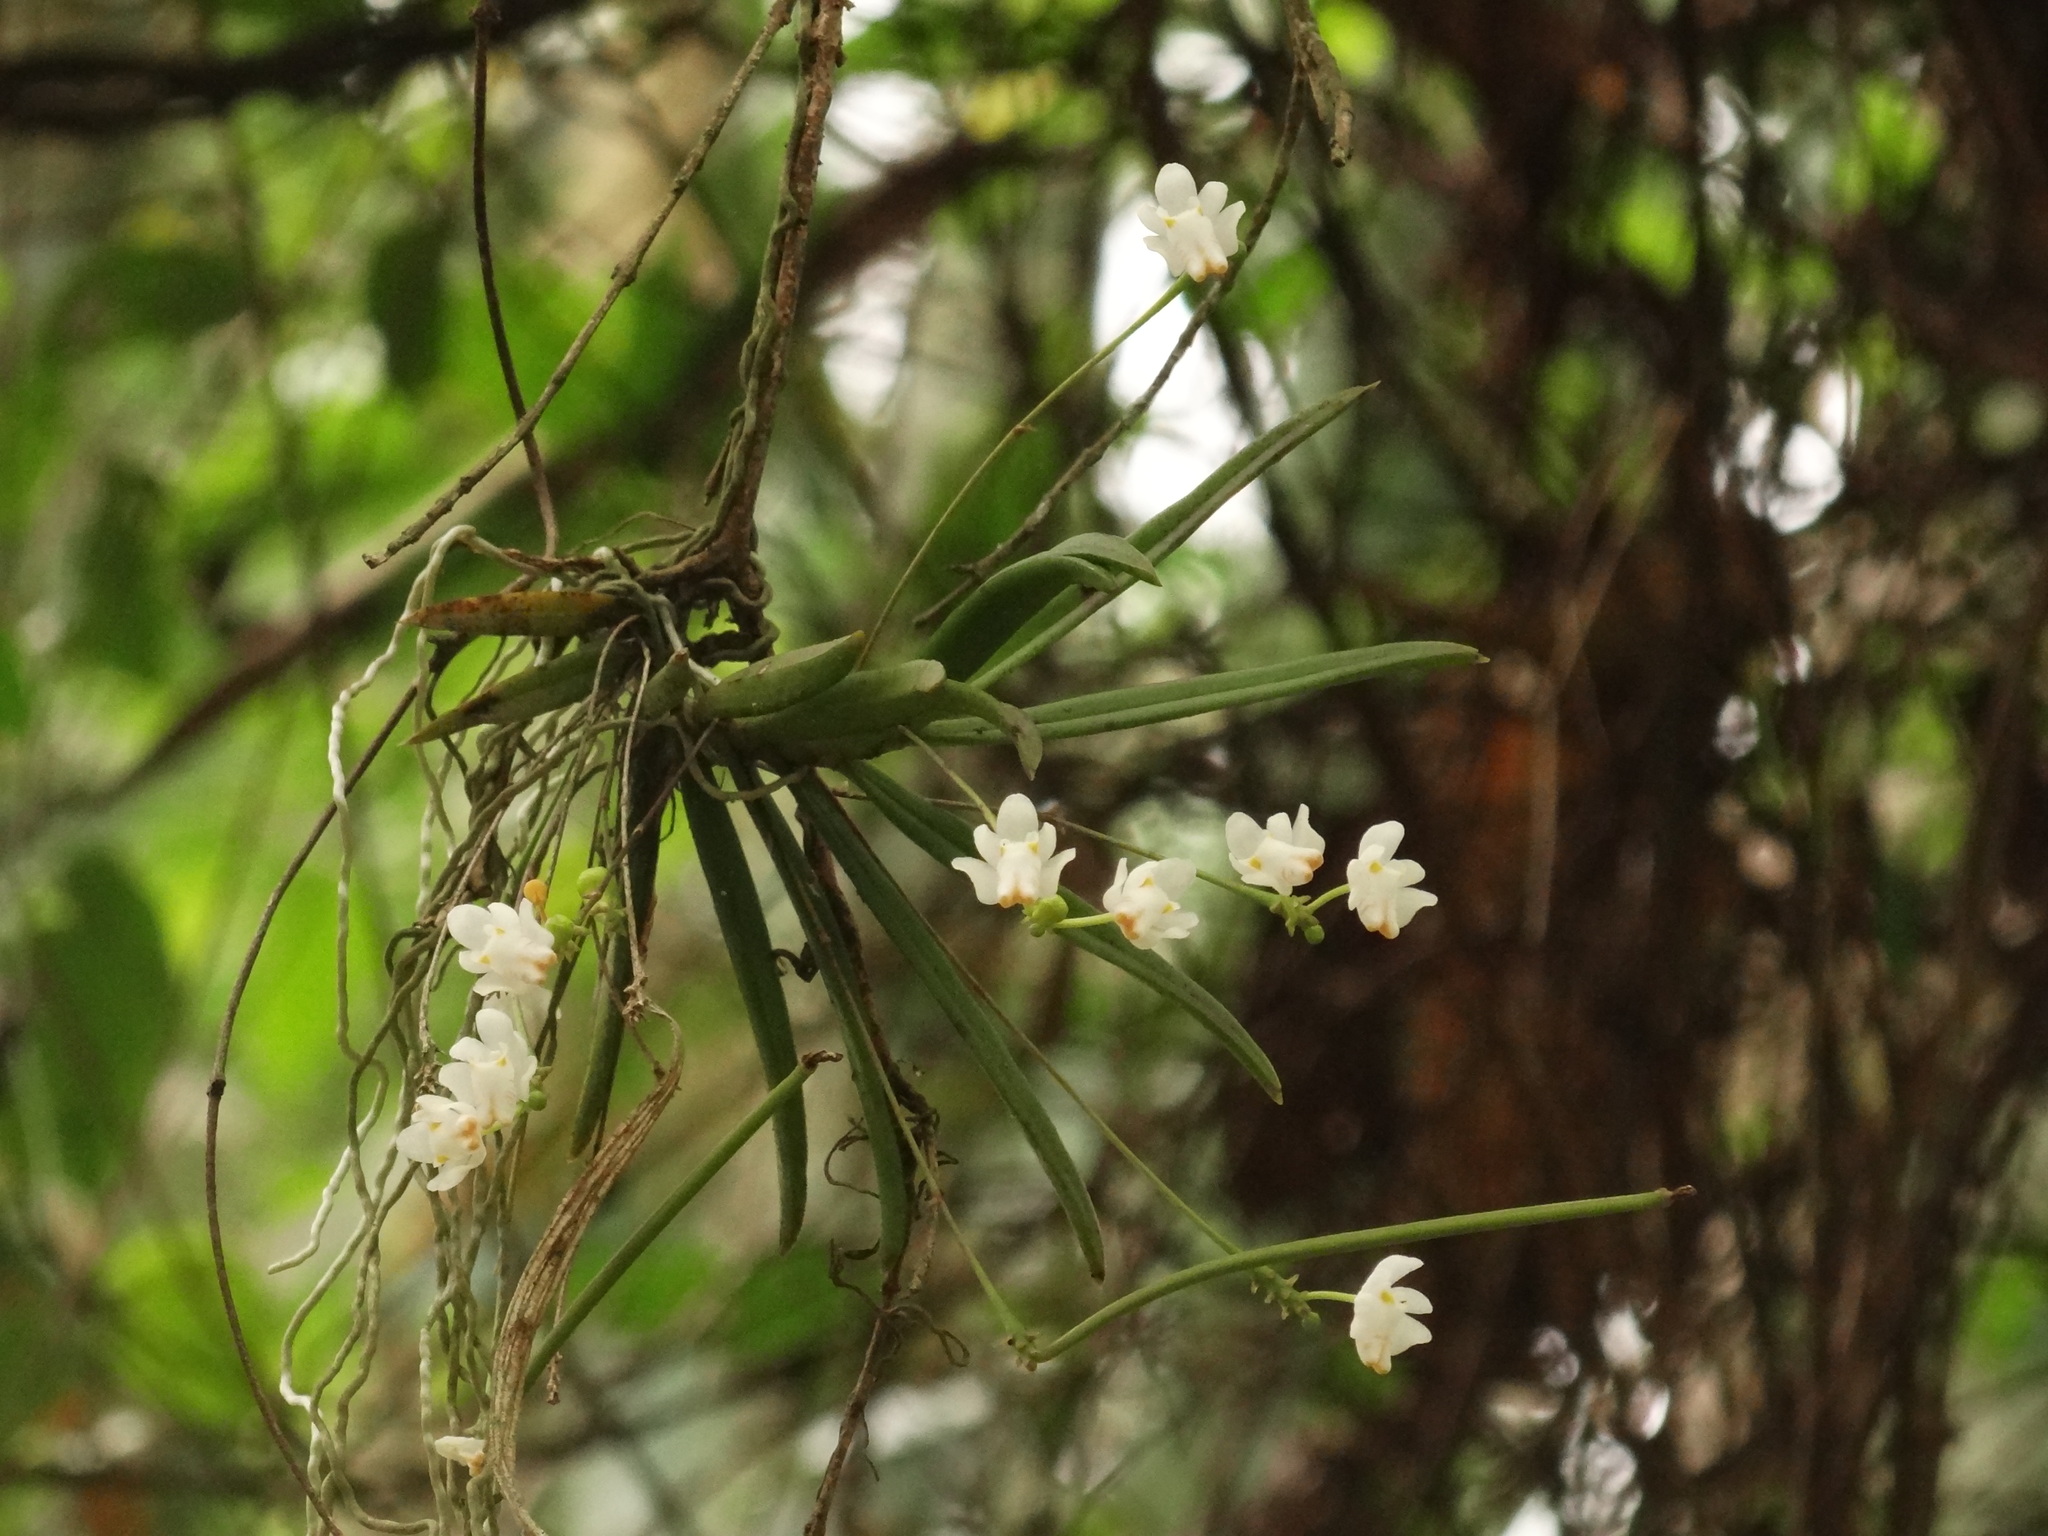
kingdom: Plantae
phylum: Tracheophyta
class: Liliopsida
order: Asparagales
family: Orchidaceae
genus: Thrixspermum
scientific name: Thrixspermum formosanum
